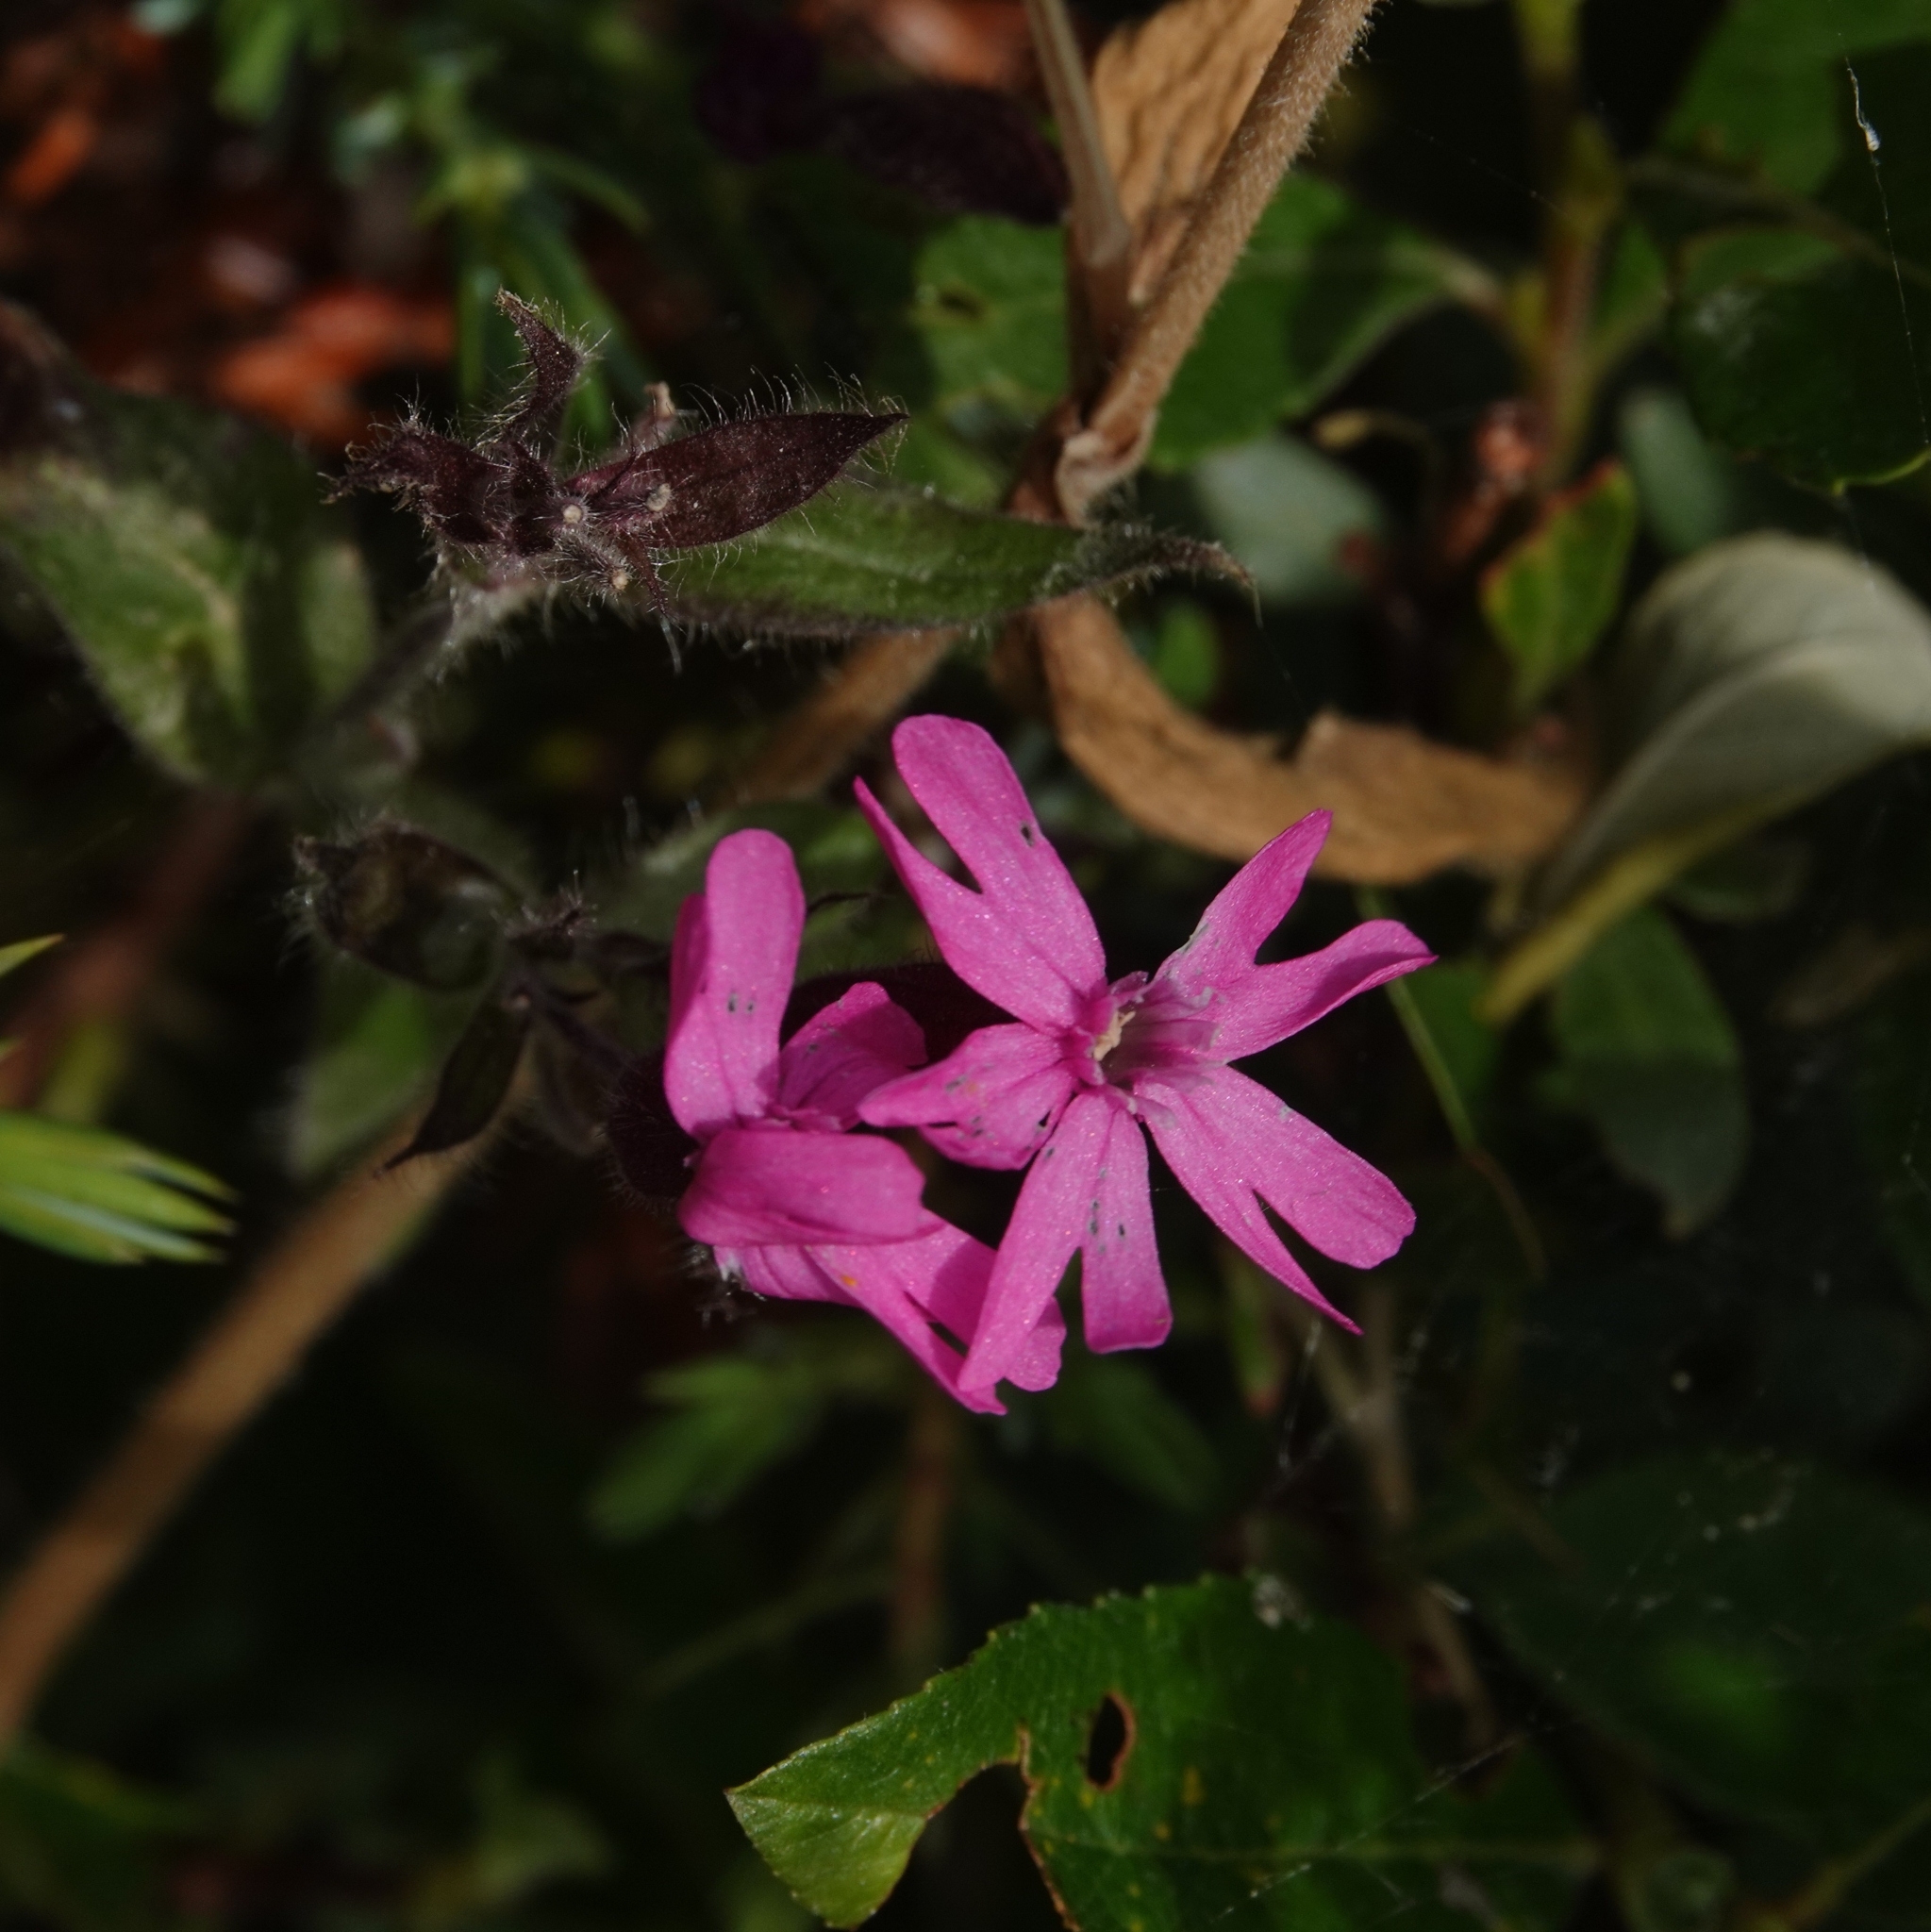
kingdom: Plantae
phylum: Tracheophyta
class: Magnoliopsida
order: Caryophyllales
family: Caryophyllaceae
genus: Silene
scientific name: Silene dioica
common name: Red campion
